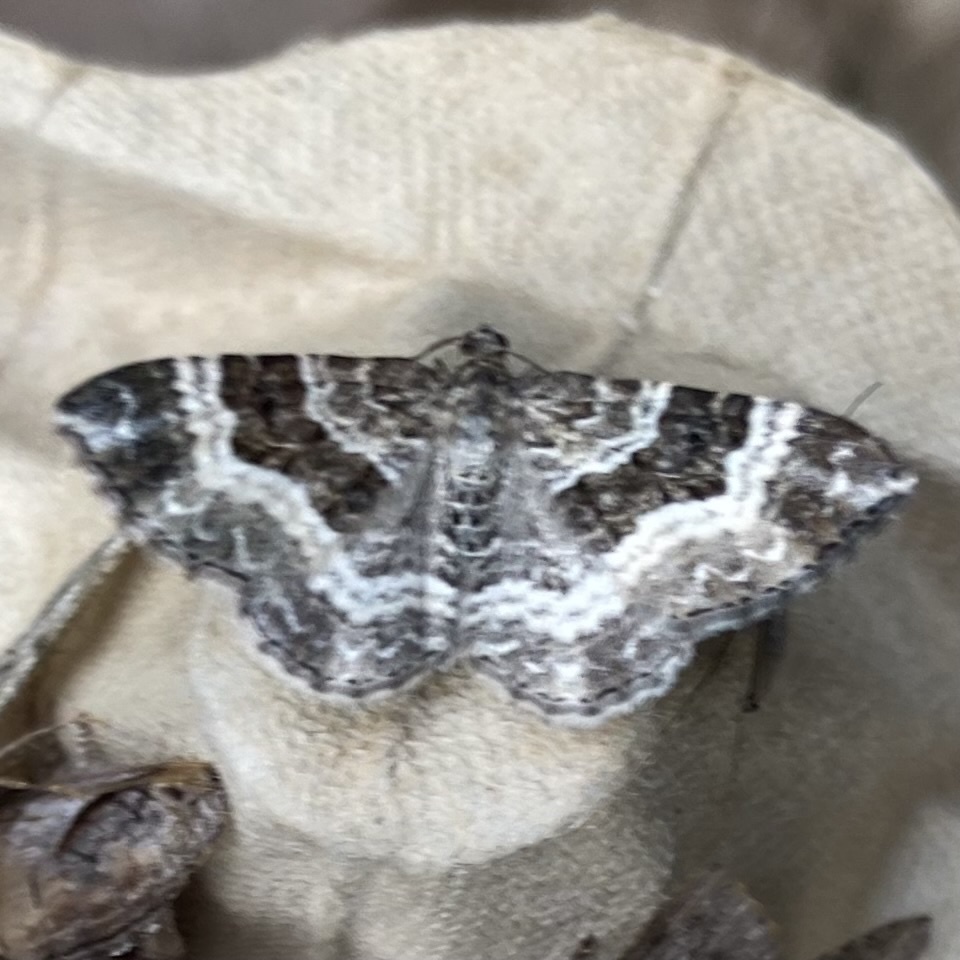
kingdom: Animalia
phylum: Arthropoda
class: Insecta
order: Lepidoptera
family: Geometridae
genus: Epirrhoe
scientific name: Epirrhoe alternata
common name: Common carpet
